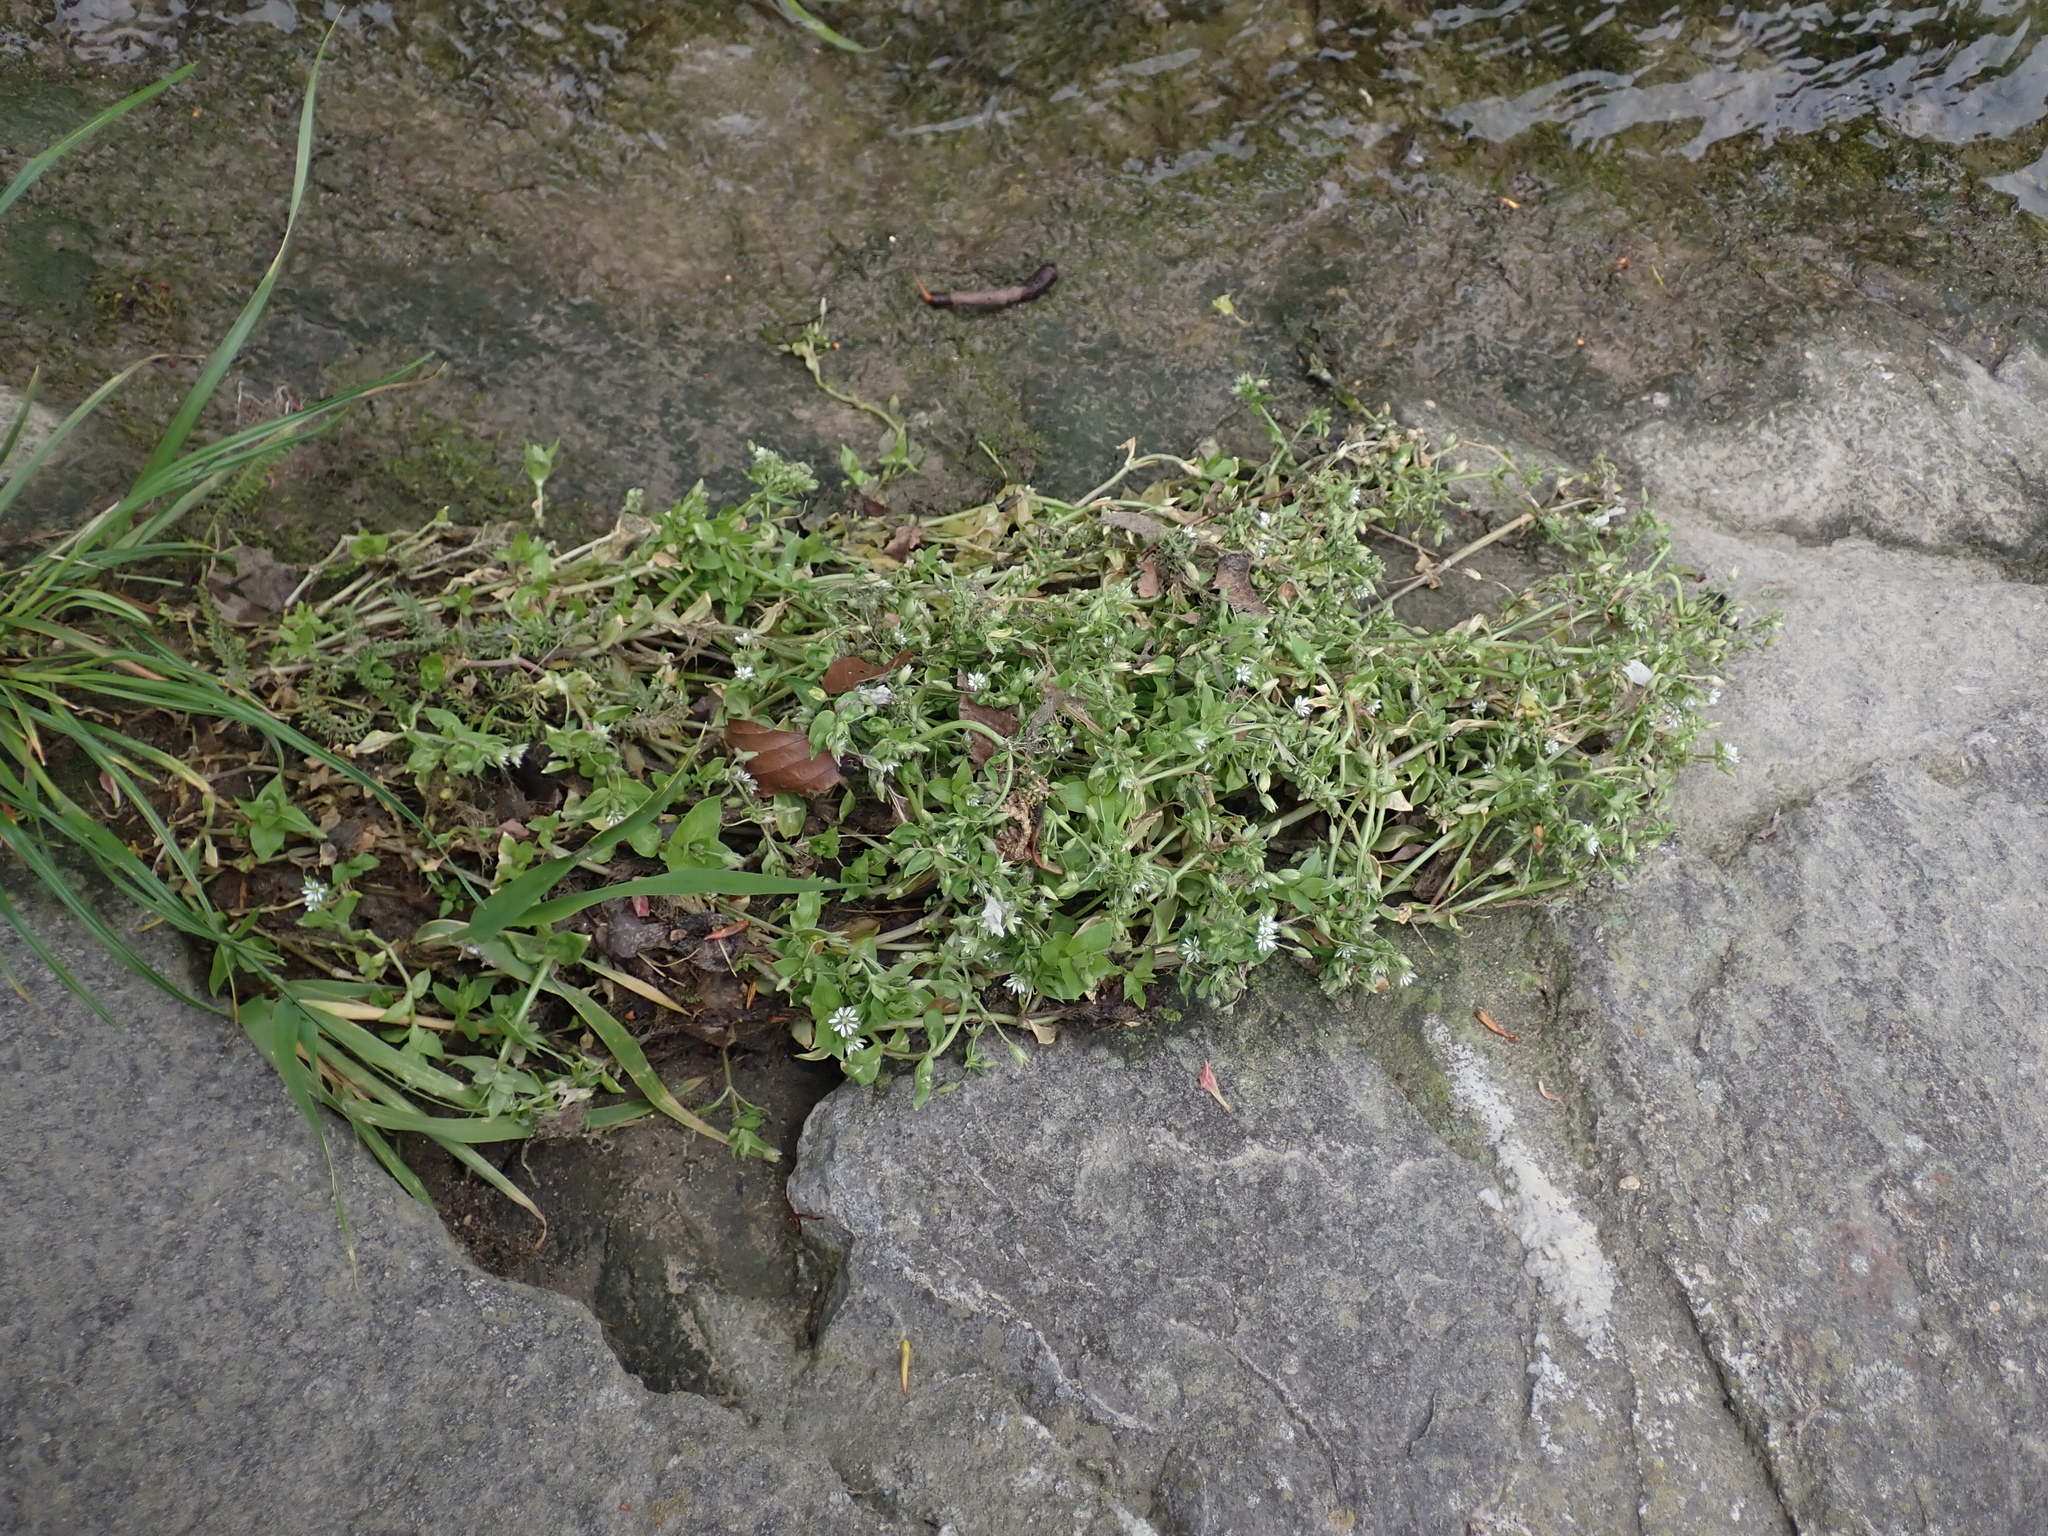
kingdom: Plantae
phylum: Tracheophyta
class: Magnoliopsida
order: Caryophyllales
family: Caryophyllaceae
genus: Stellaria
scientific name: Stellaria ruderalis
